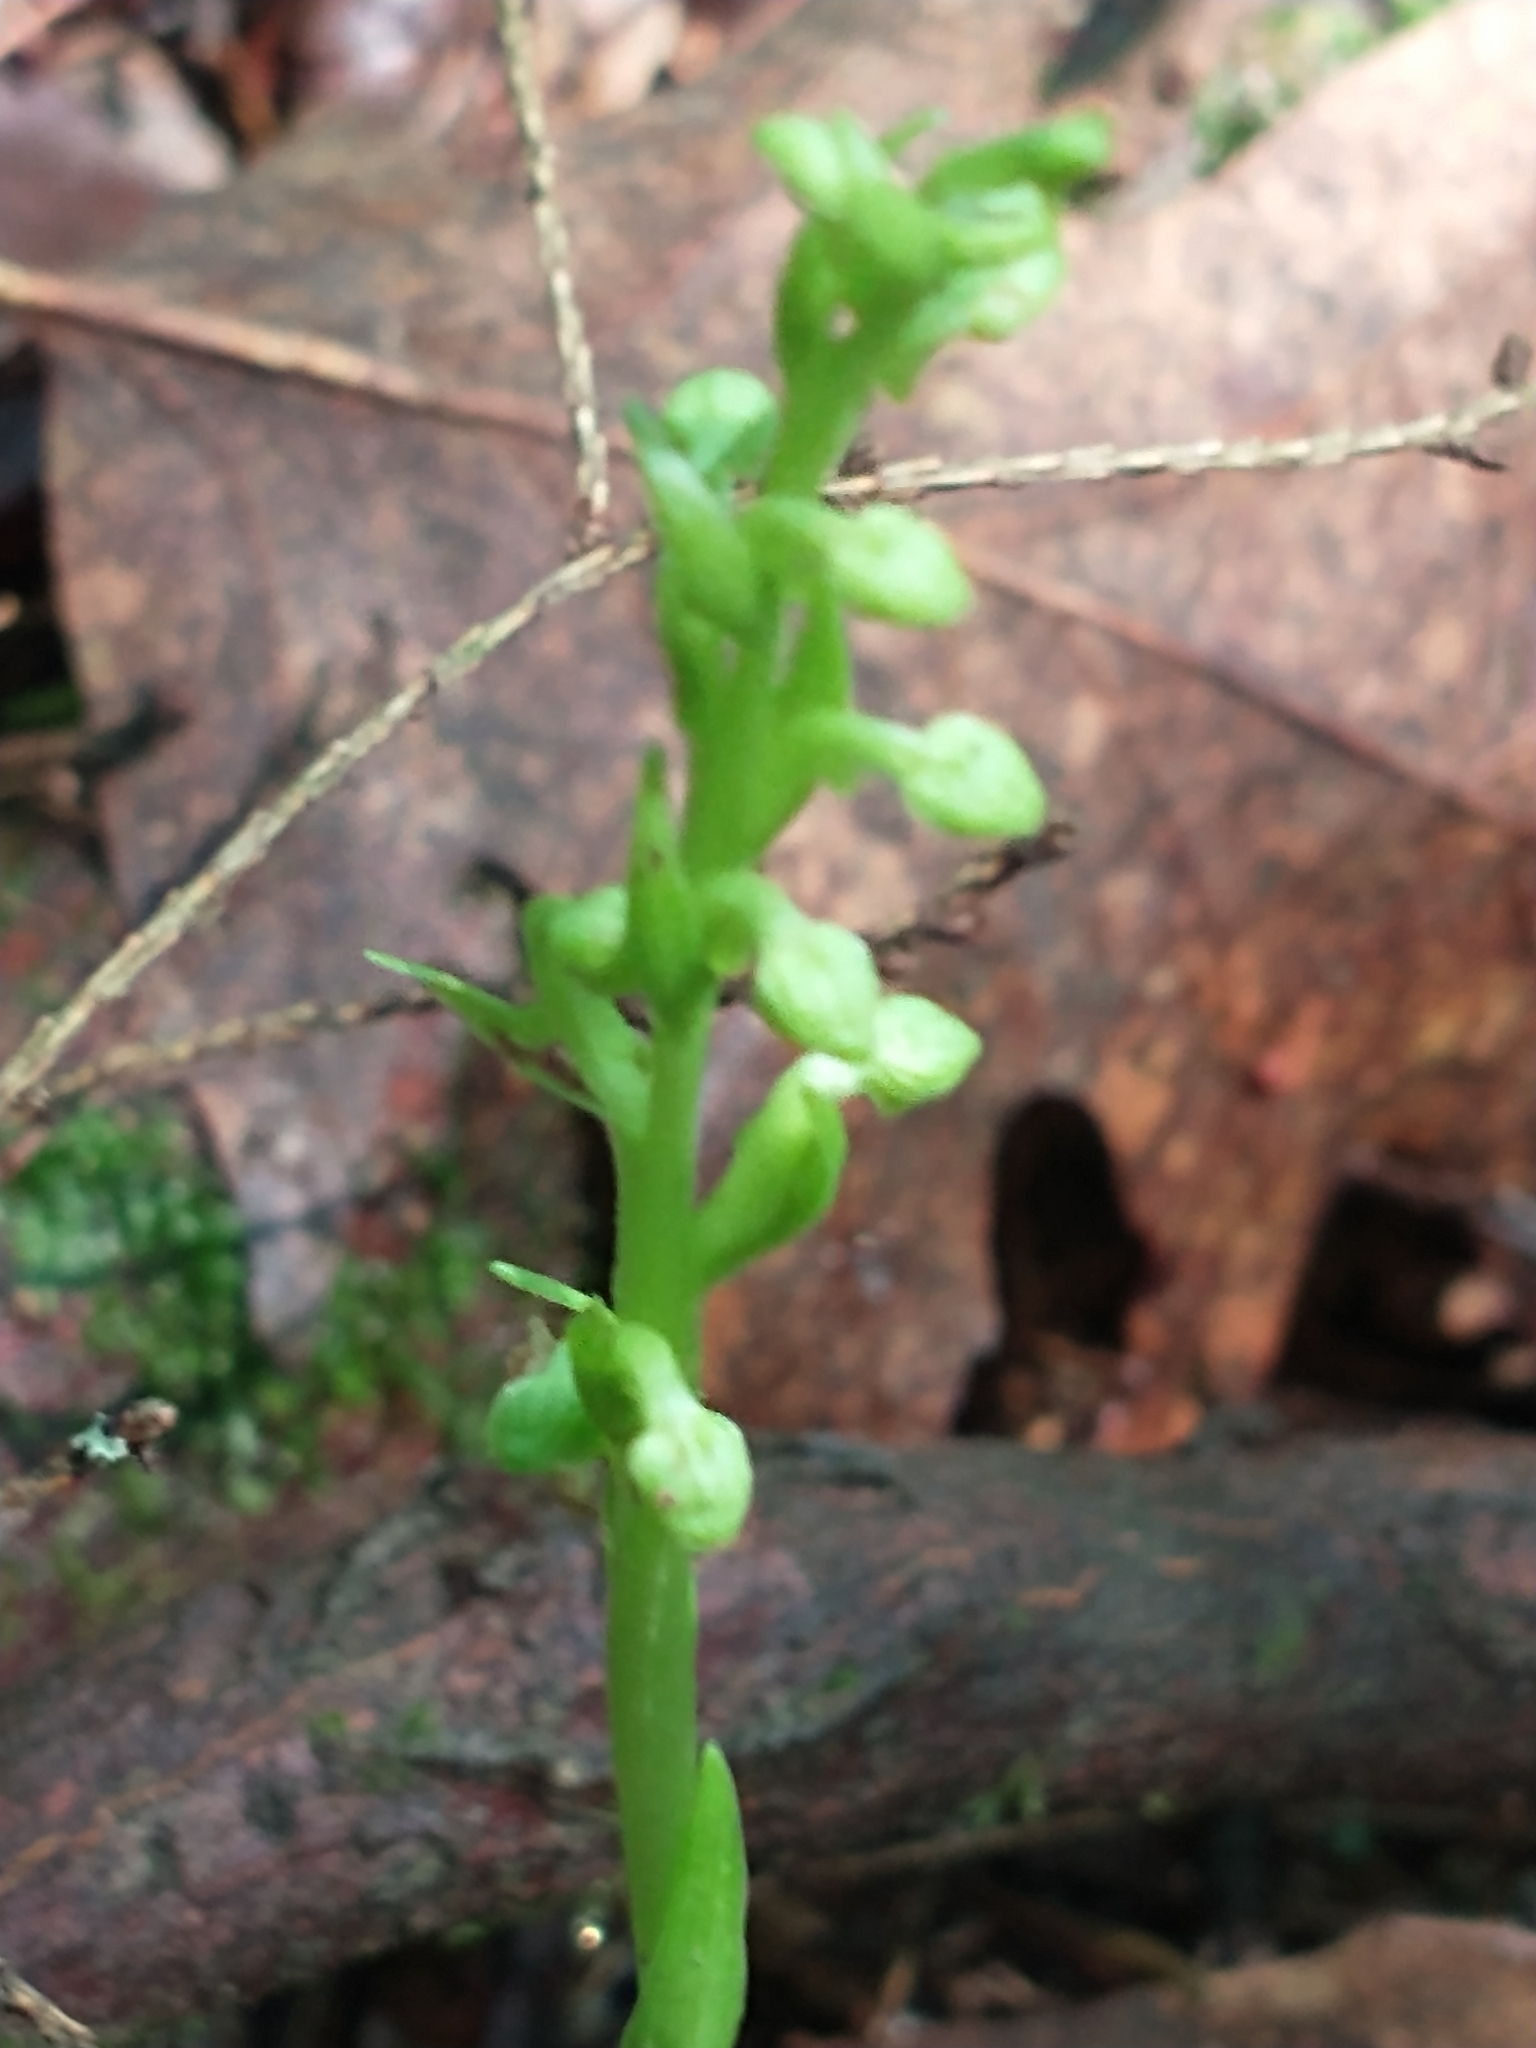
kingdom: Plantae
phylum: Tracheophyta
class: Liliopsida
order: Asparagales
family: Orchidaceae
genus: Platanthera
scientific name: Platanthera aquilonis
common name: Northern green orchid
